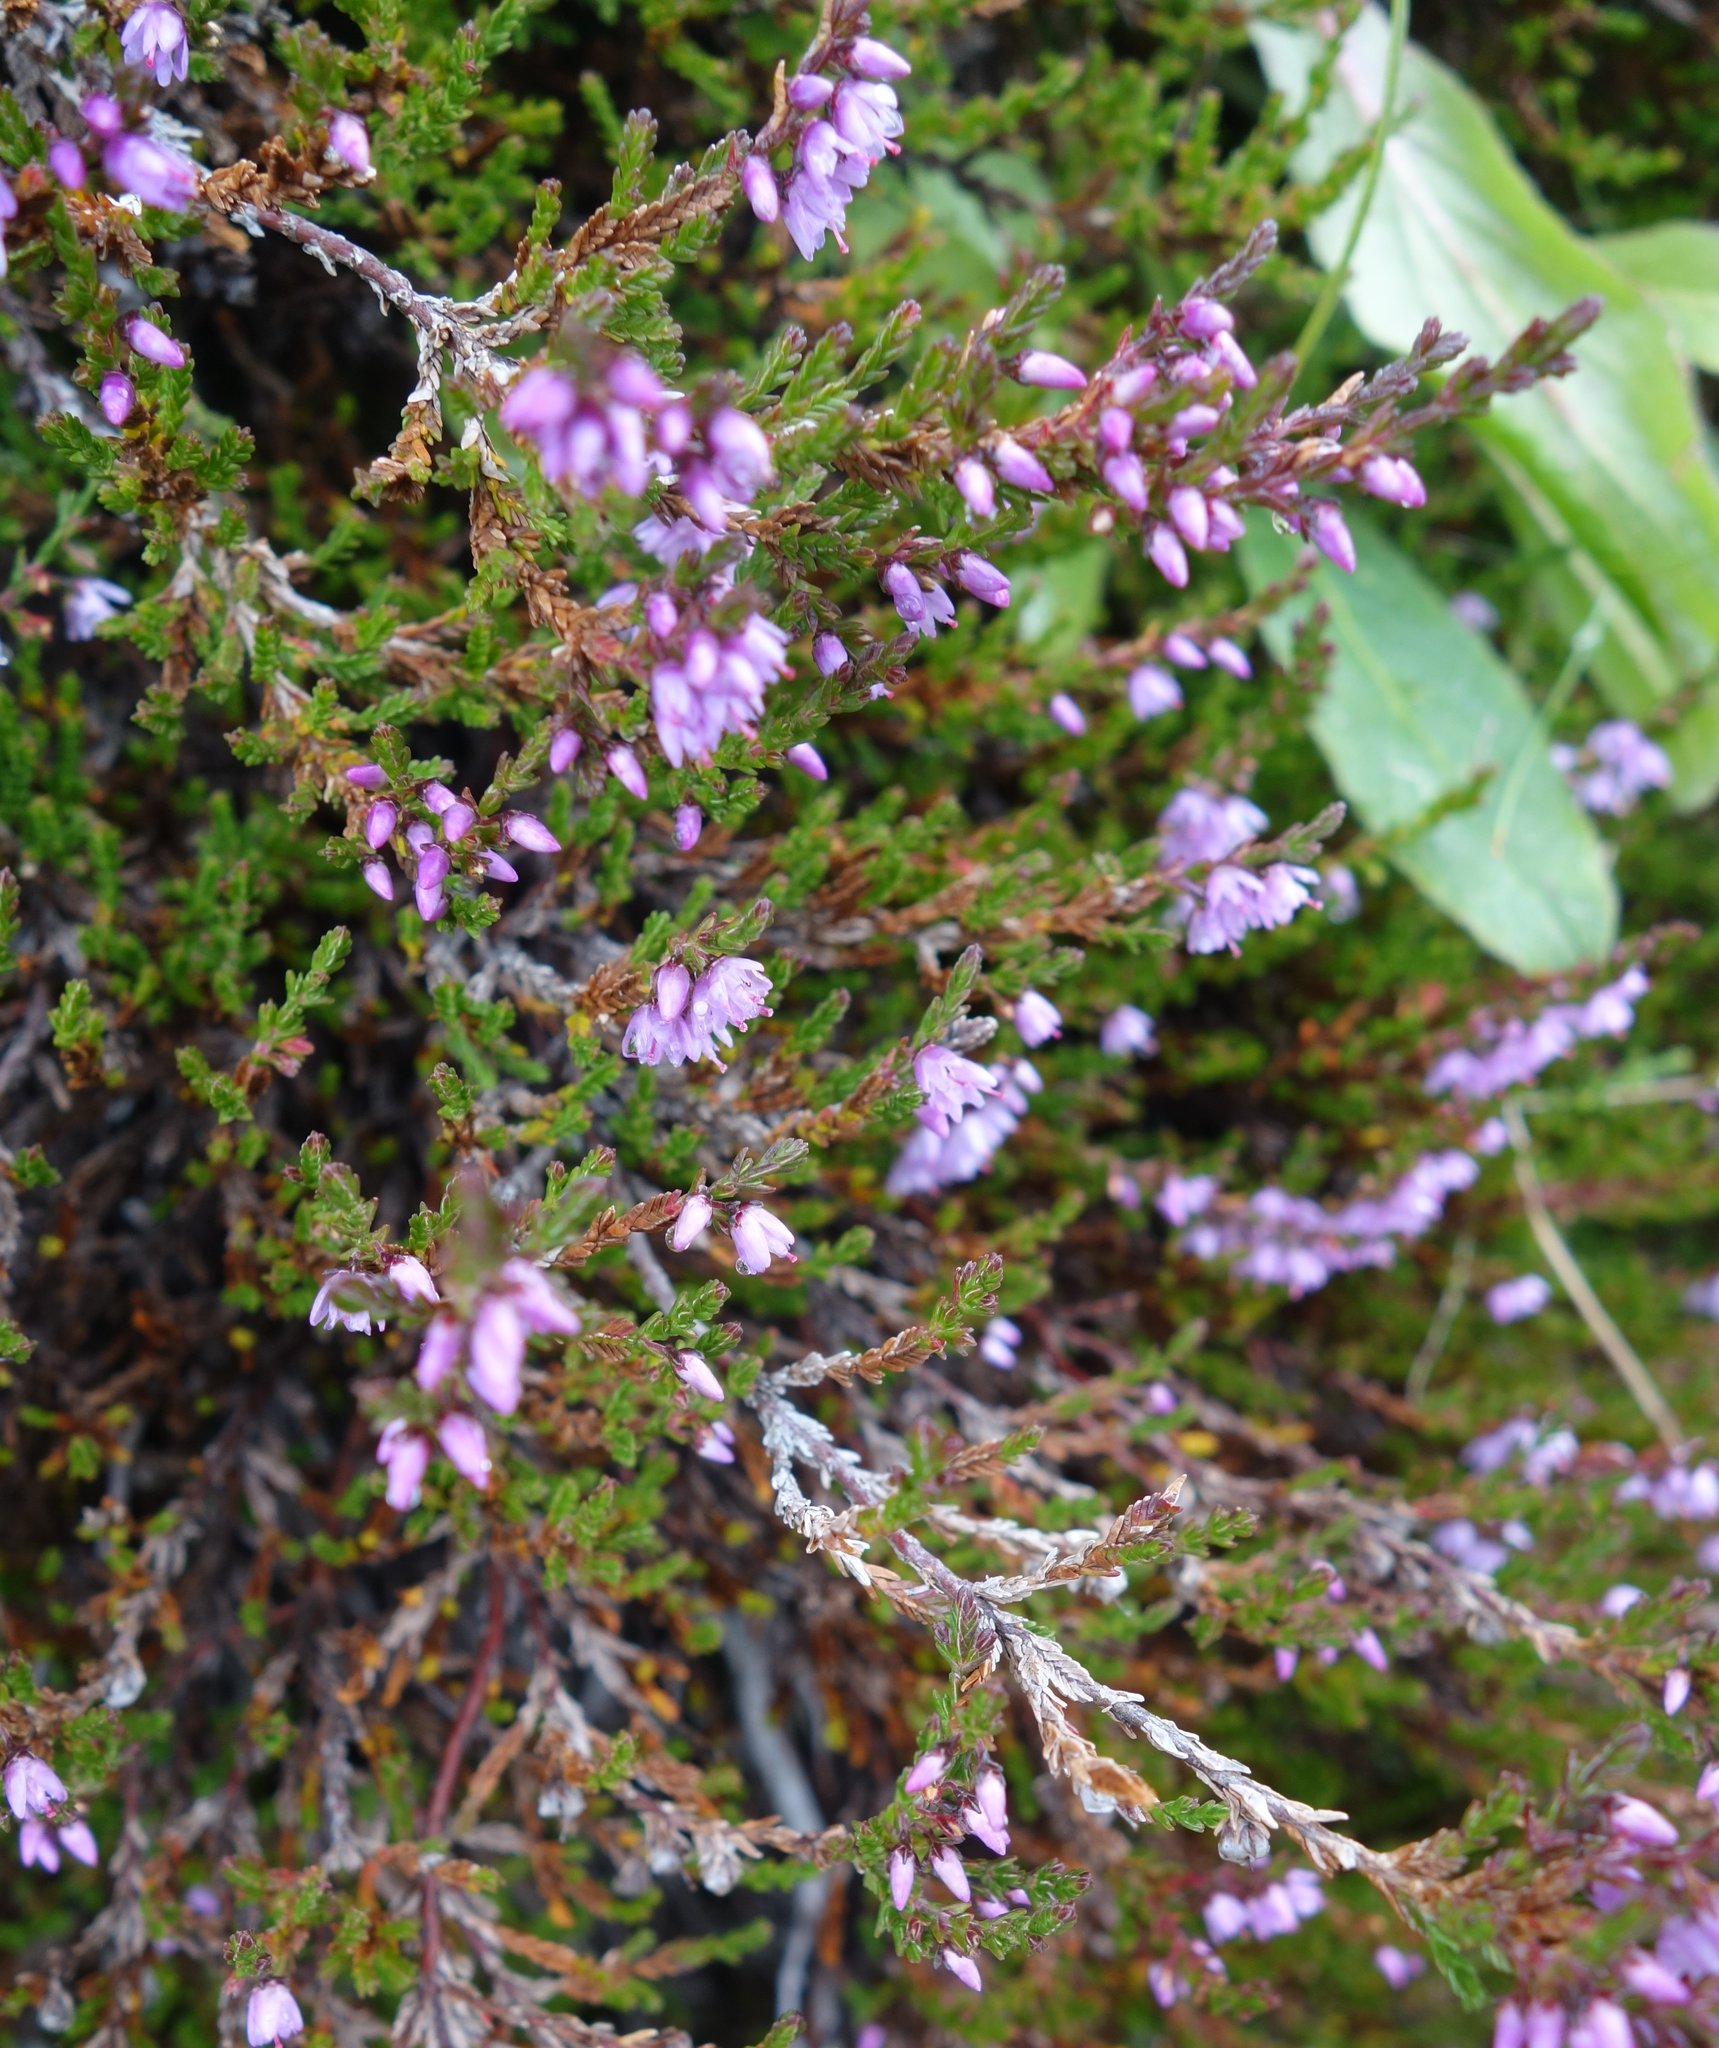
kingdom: Plantae
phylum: Tracheophyta
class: Magnoliopsida
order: Ericales
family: Ericaceae
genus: Calluna
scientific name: Calluna vulgaris
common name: Heather
